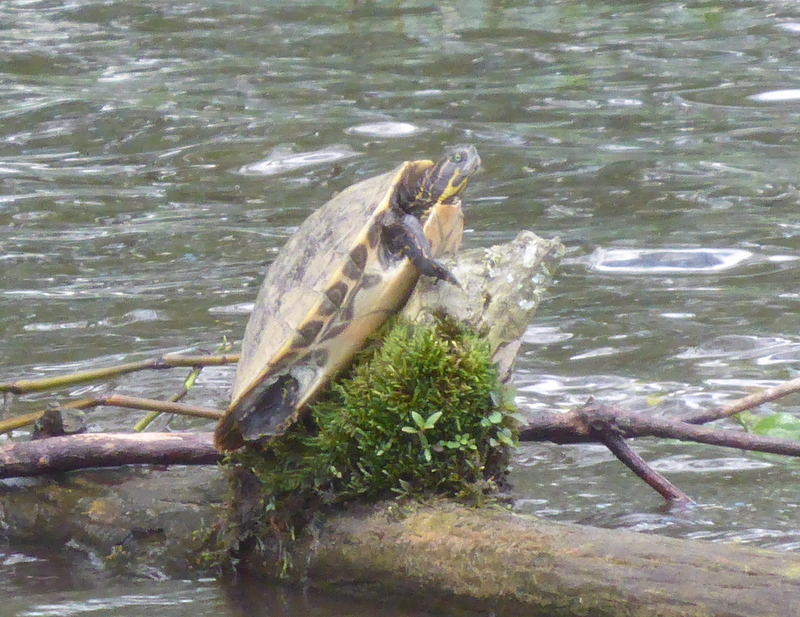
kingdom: Animalia
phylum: Chordata
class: Testudines
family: Emydidae
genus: Pseudemys
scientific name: Pseudemys concinna
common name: Eastern river cooter
